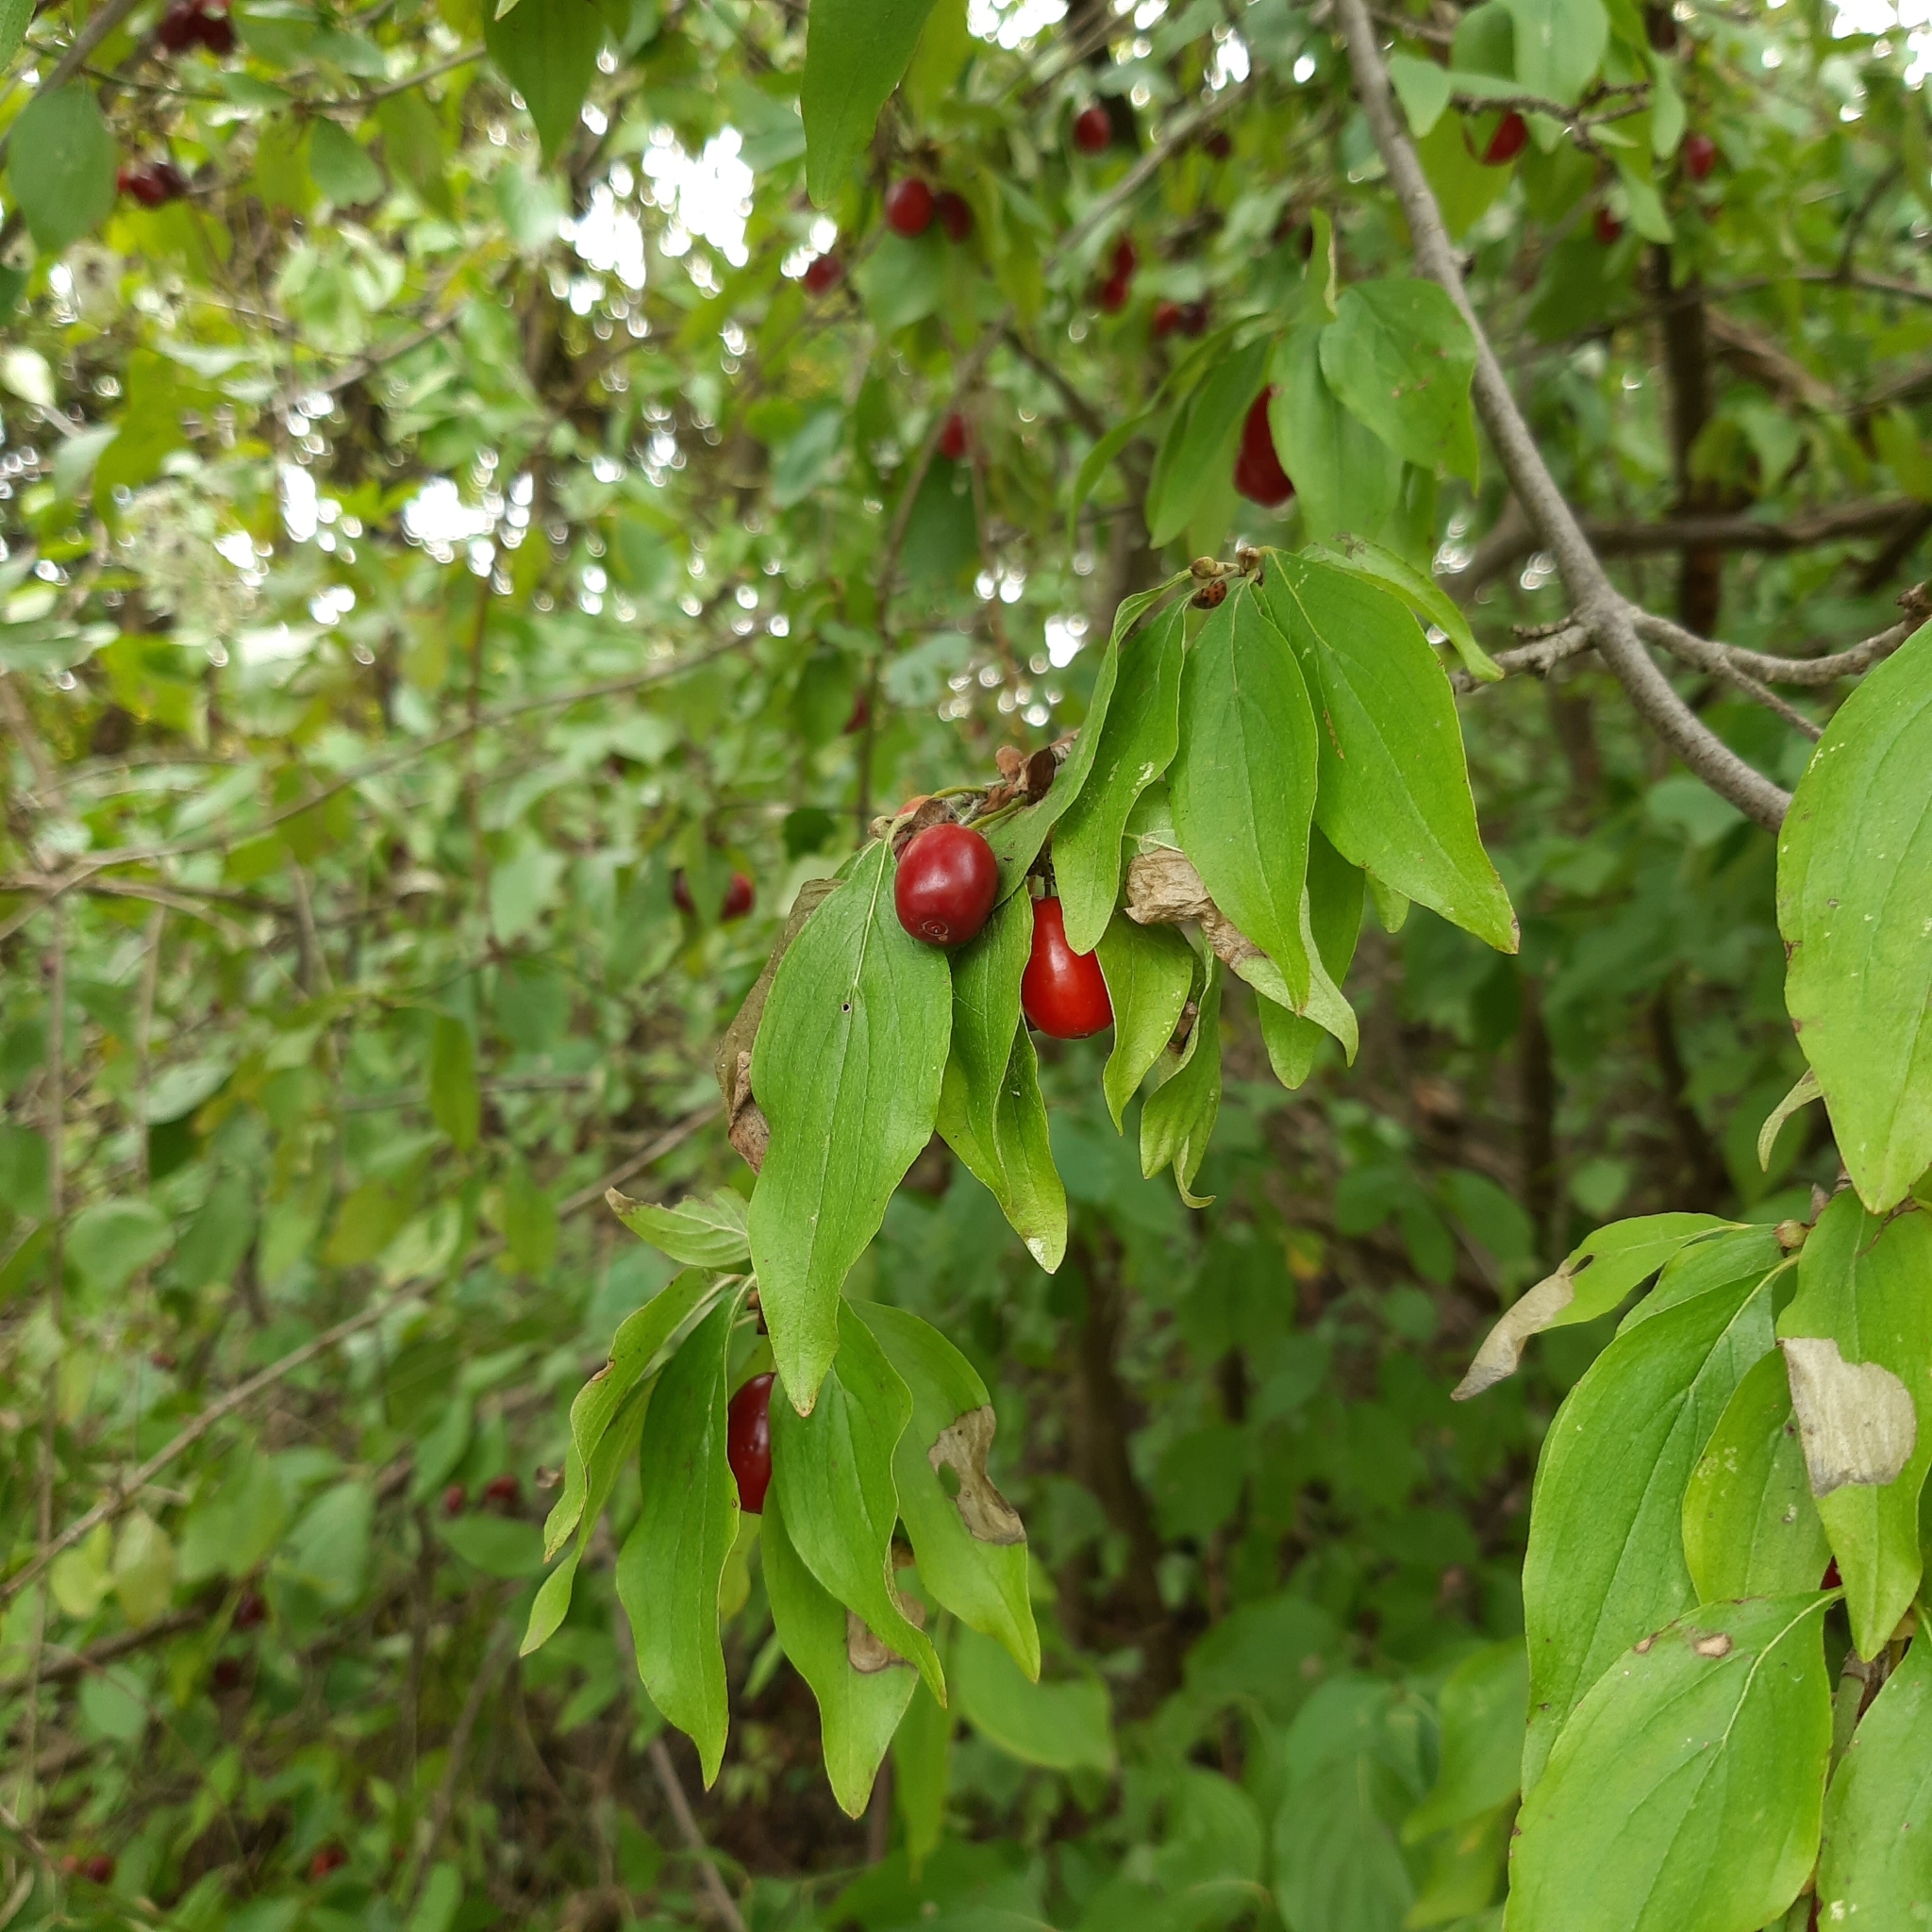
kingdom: Plantae
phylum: Tracheophyta
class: Magnoliopsida
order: Cornales
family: Cornaceae
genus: Cornus
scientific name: Cornus mas
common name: Cornelian-cherry
